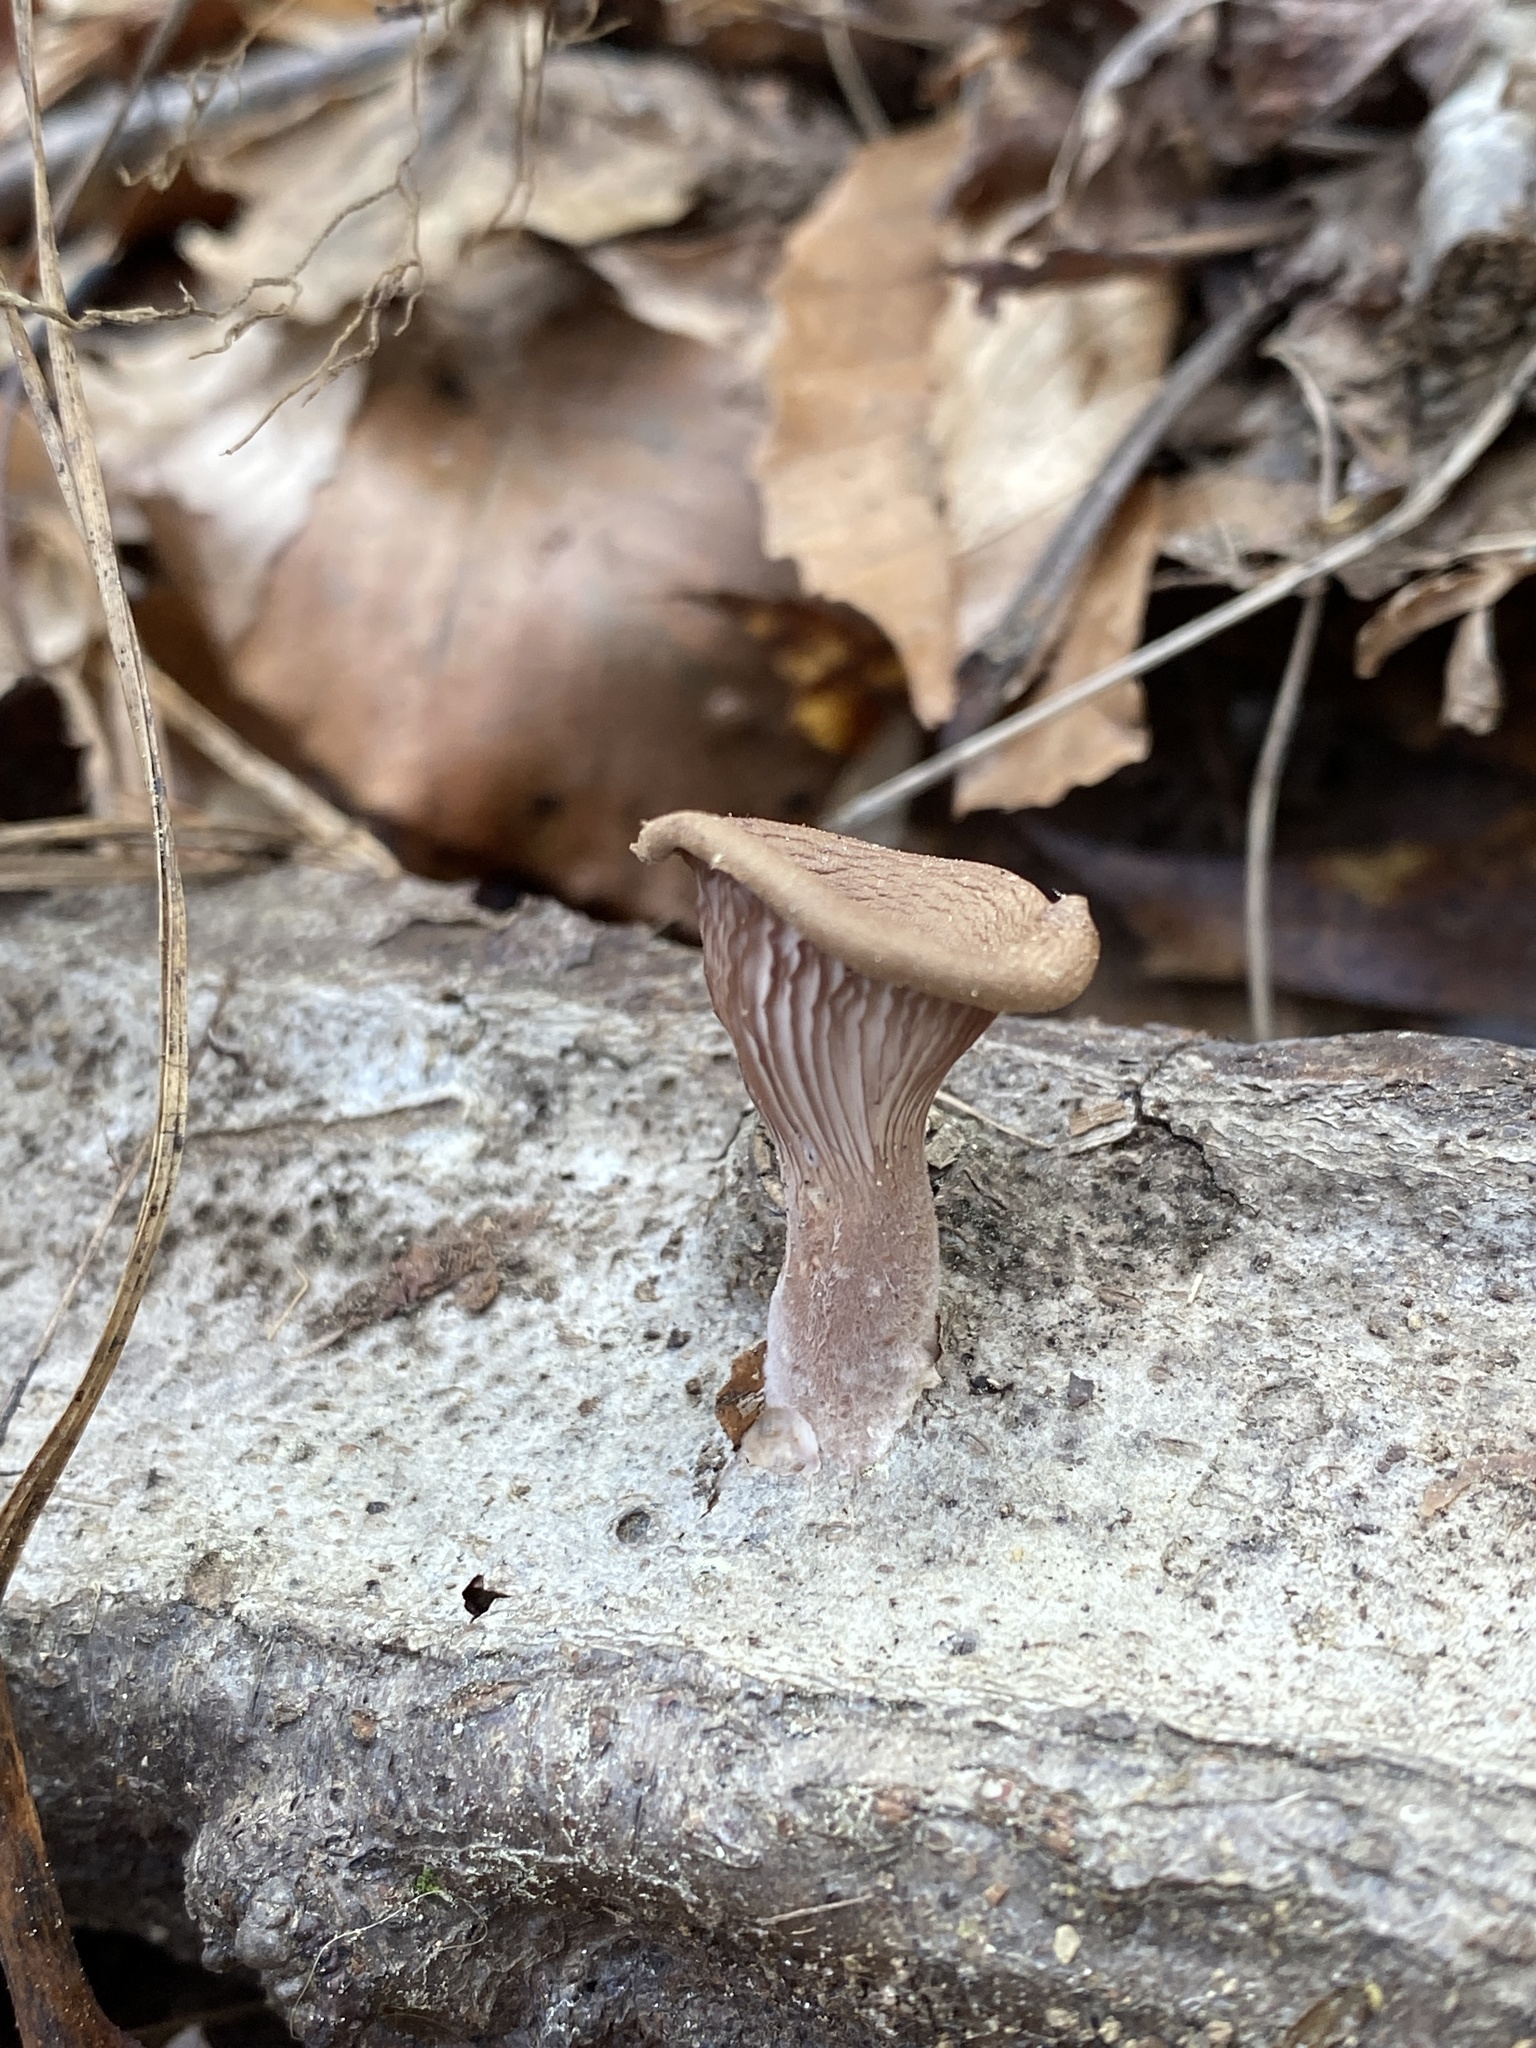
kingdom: Fungi
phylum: Basidiomycota
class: Agaricomycetes
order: Polyporales
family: Panaceae
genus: Panus
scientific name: Panus neostrigosus
